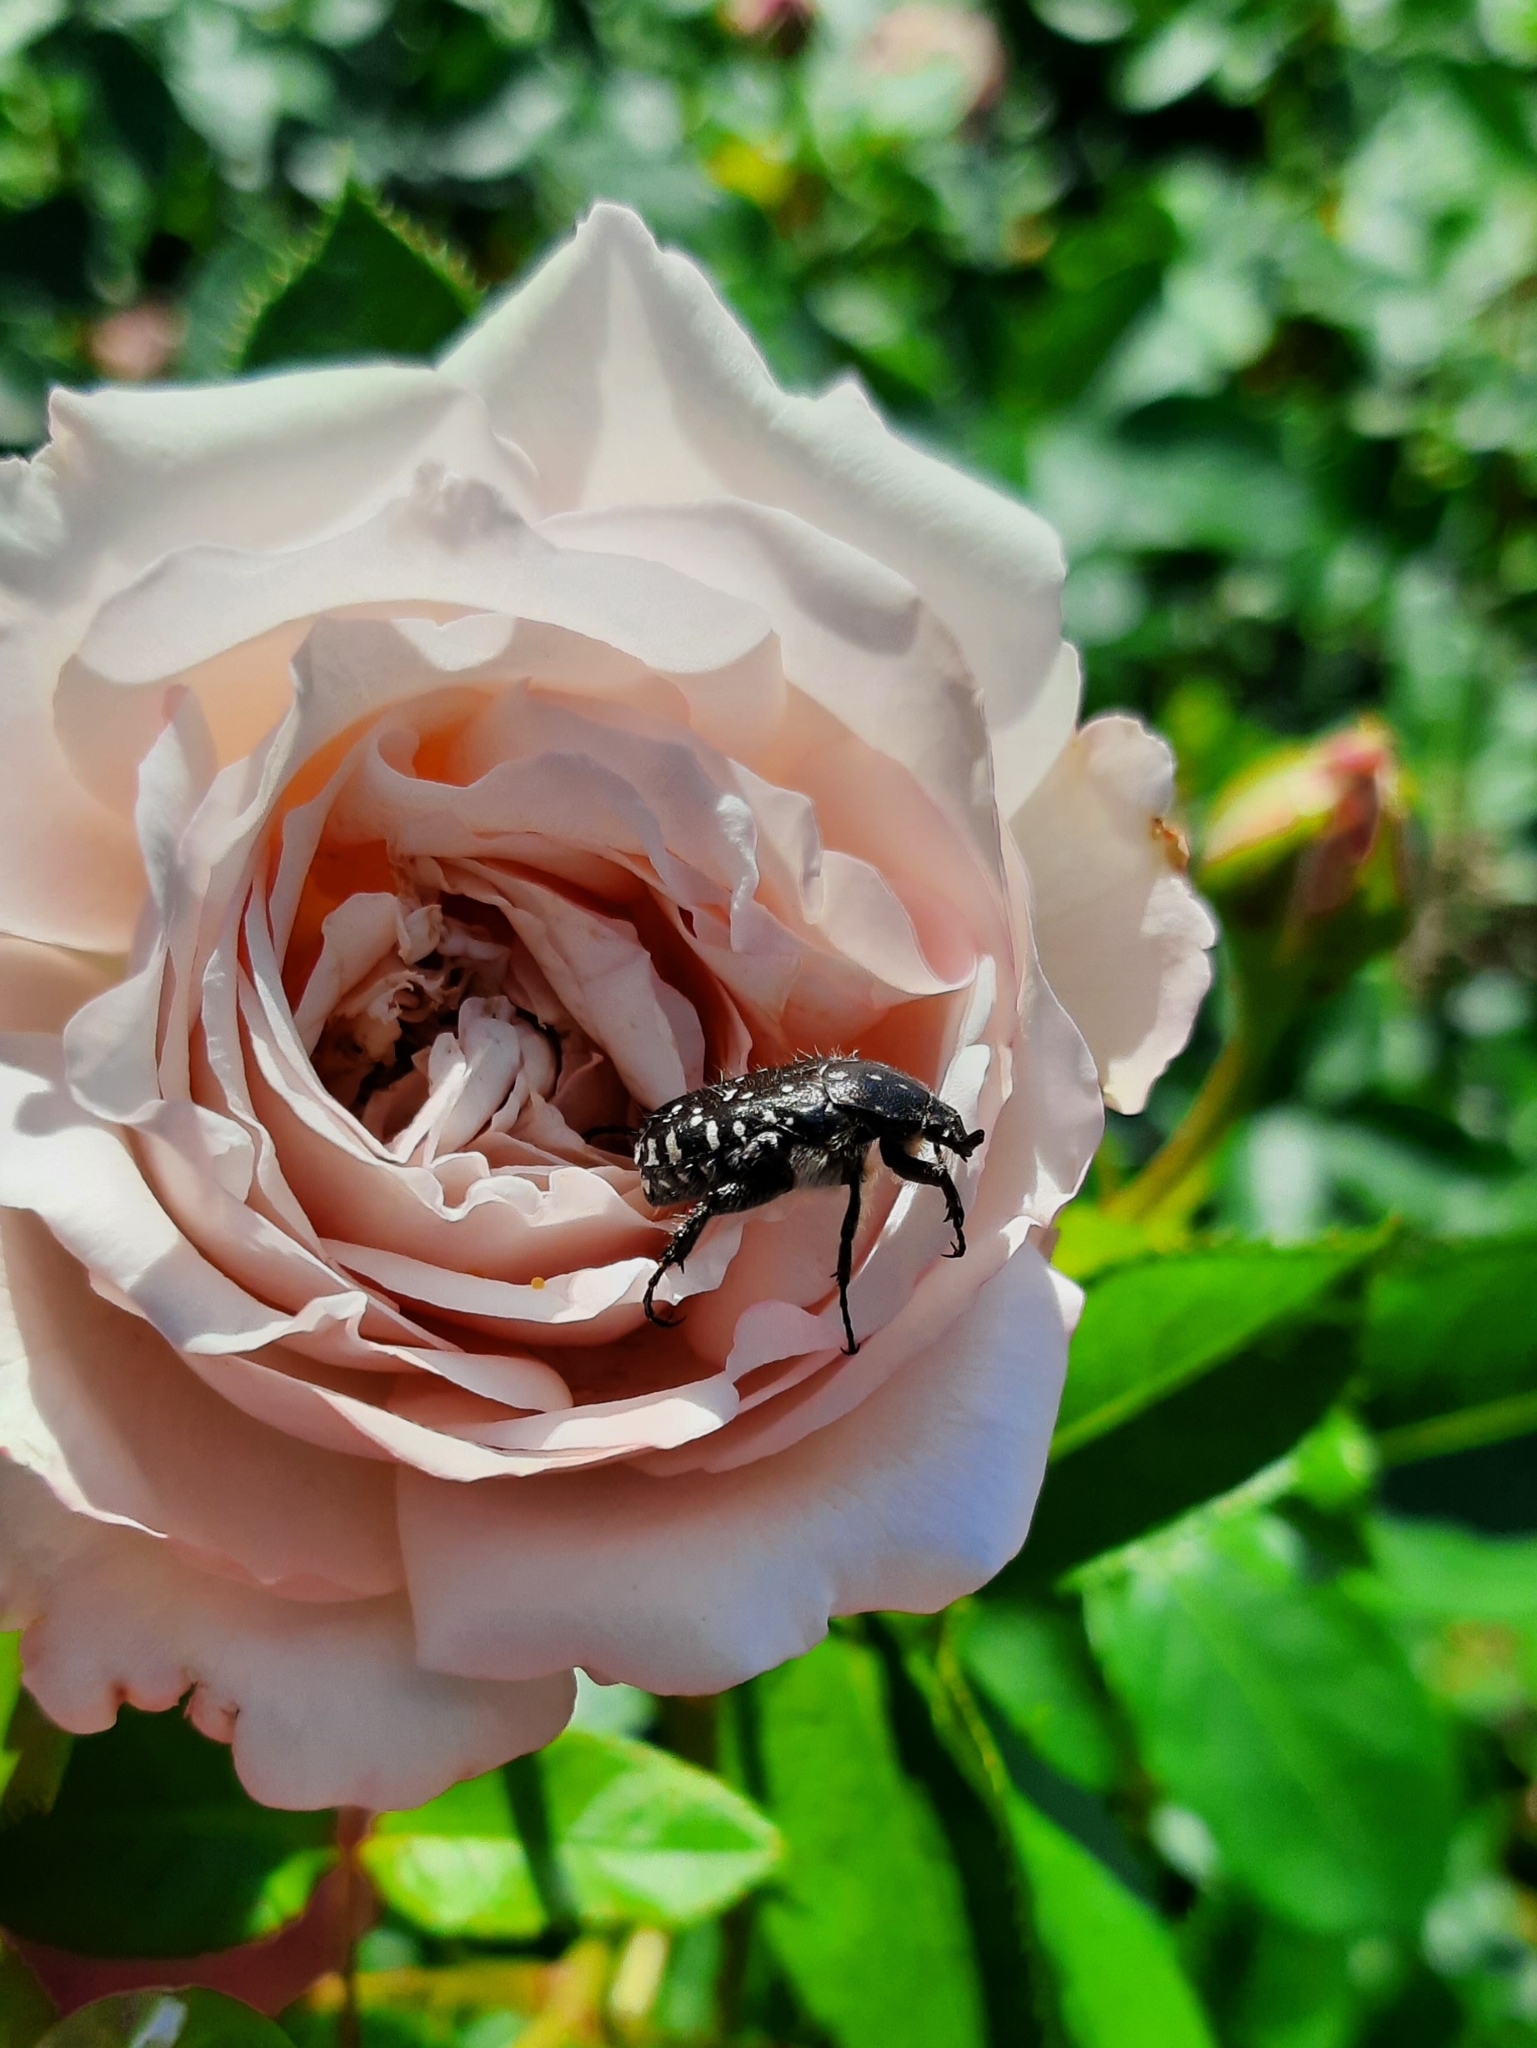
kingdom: Animalia
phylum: Arthropoda
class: Insecta
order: Coleoptera
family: Scarabaeidae
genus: Oxythyrea
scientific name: Oxythyrea funesta
